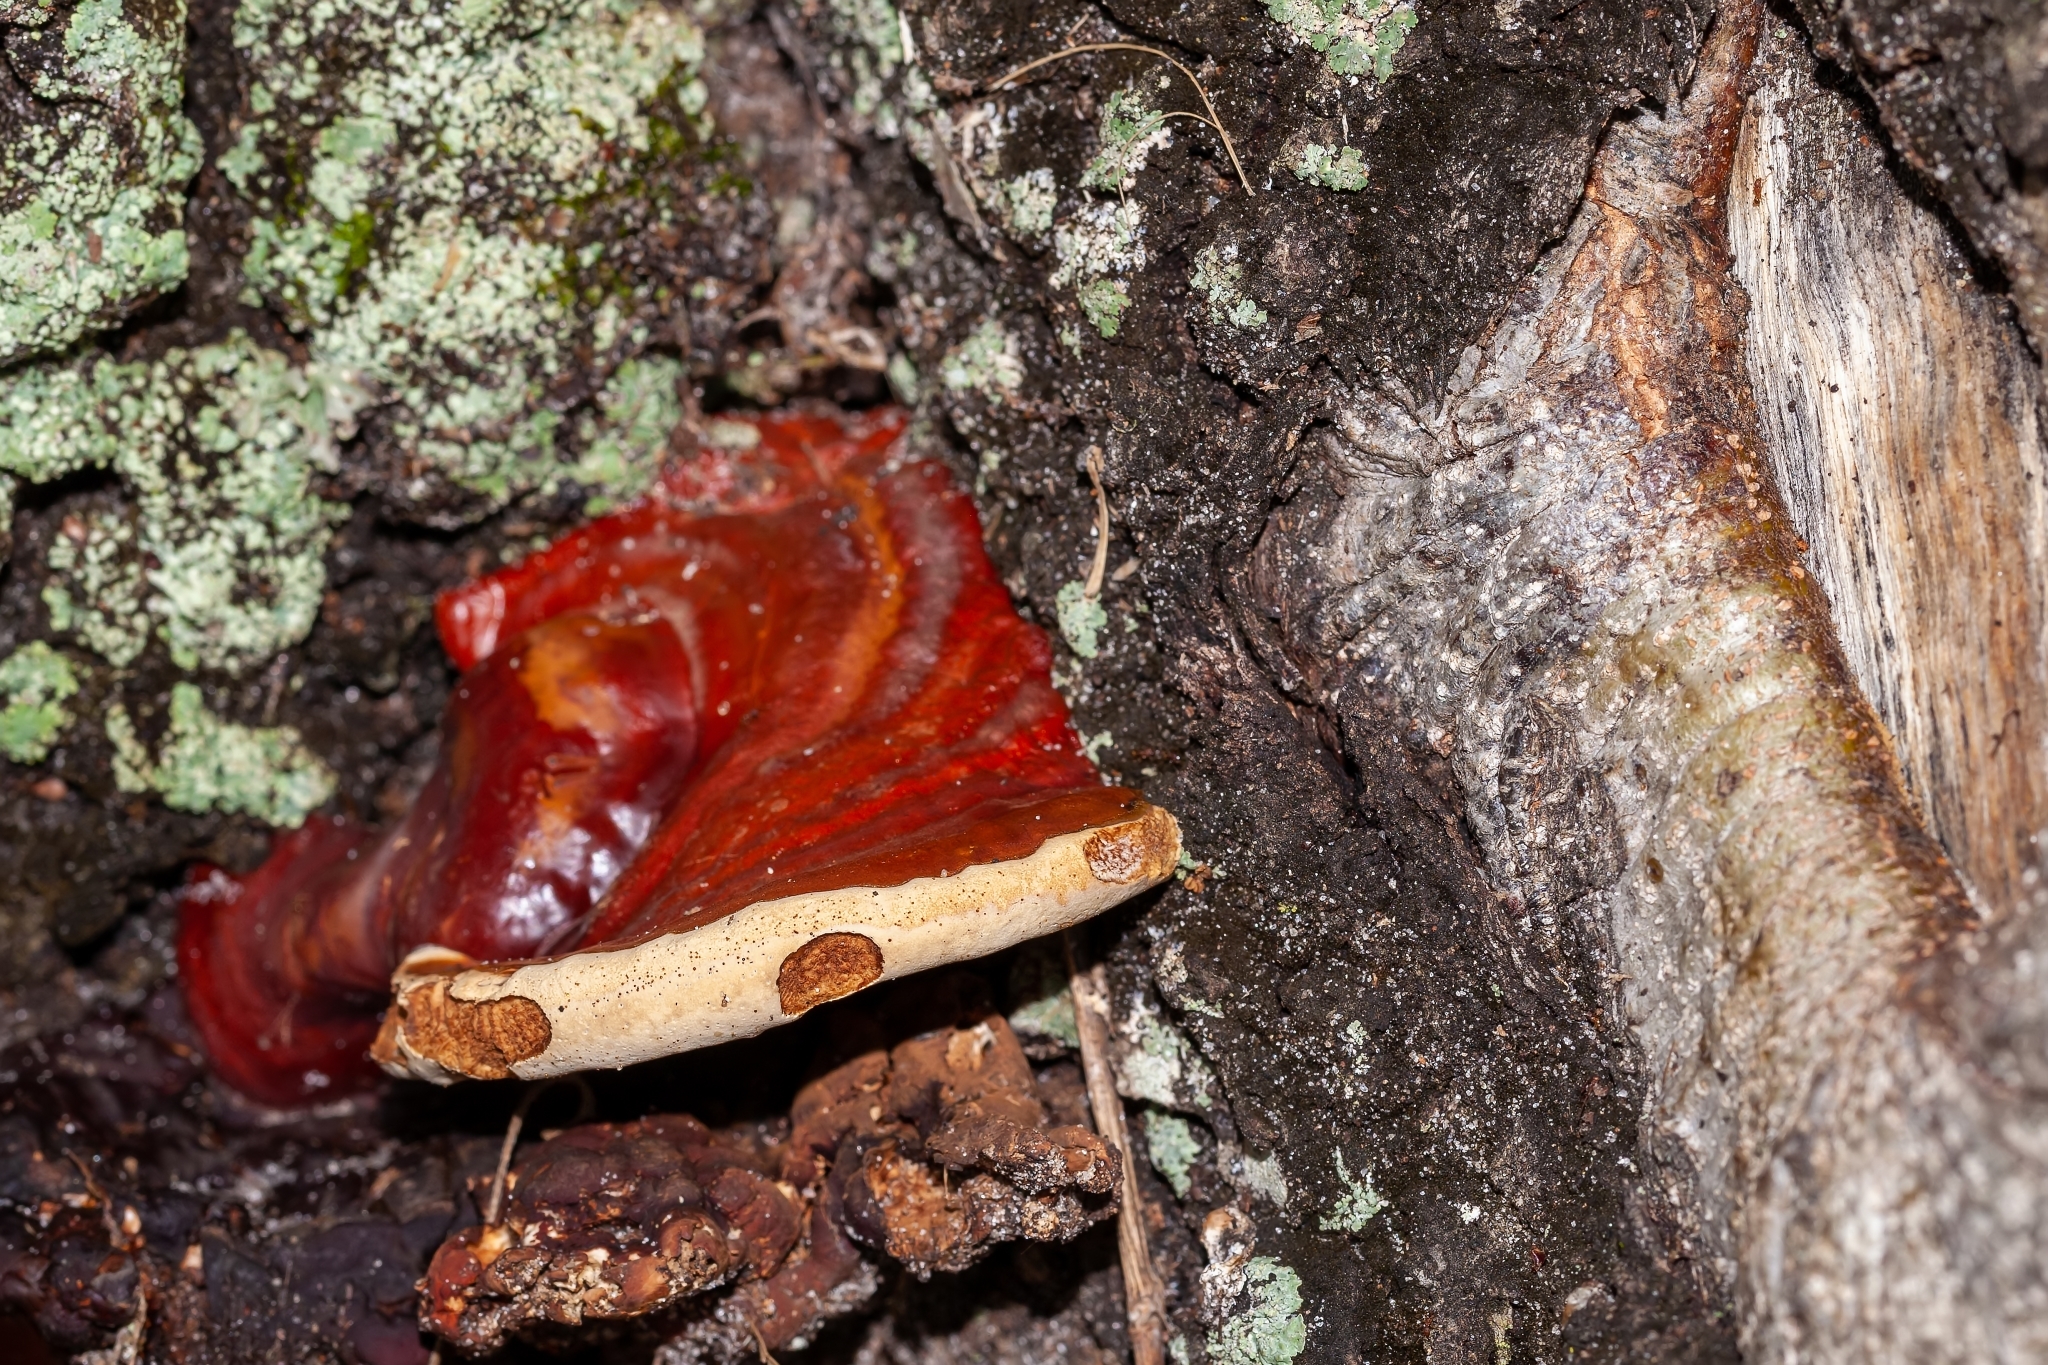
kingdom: Fungi
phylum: Basidiomycota
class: Agaricomycetes
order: Polyporales
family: Polyporaceae
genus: Ganoderma
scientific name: Ganoderma resinaceum
